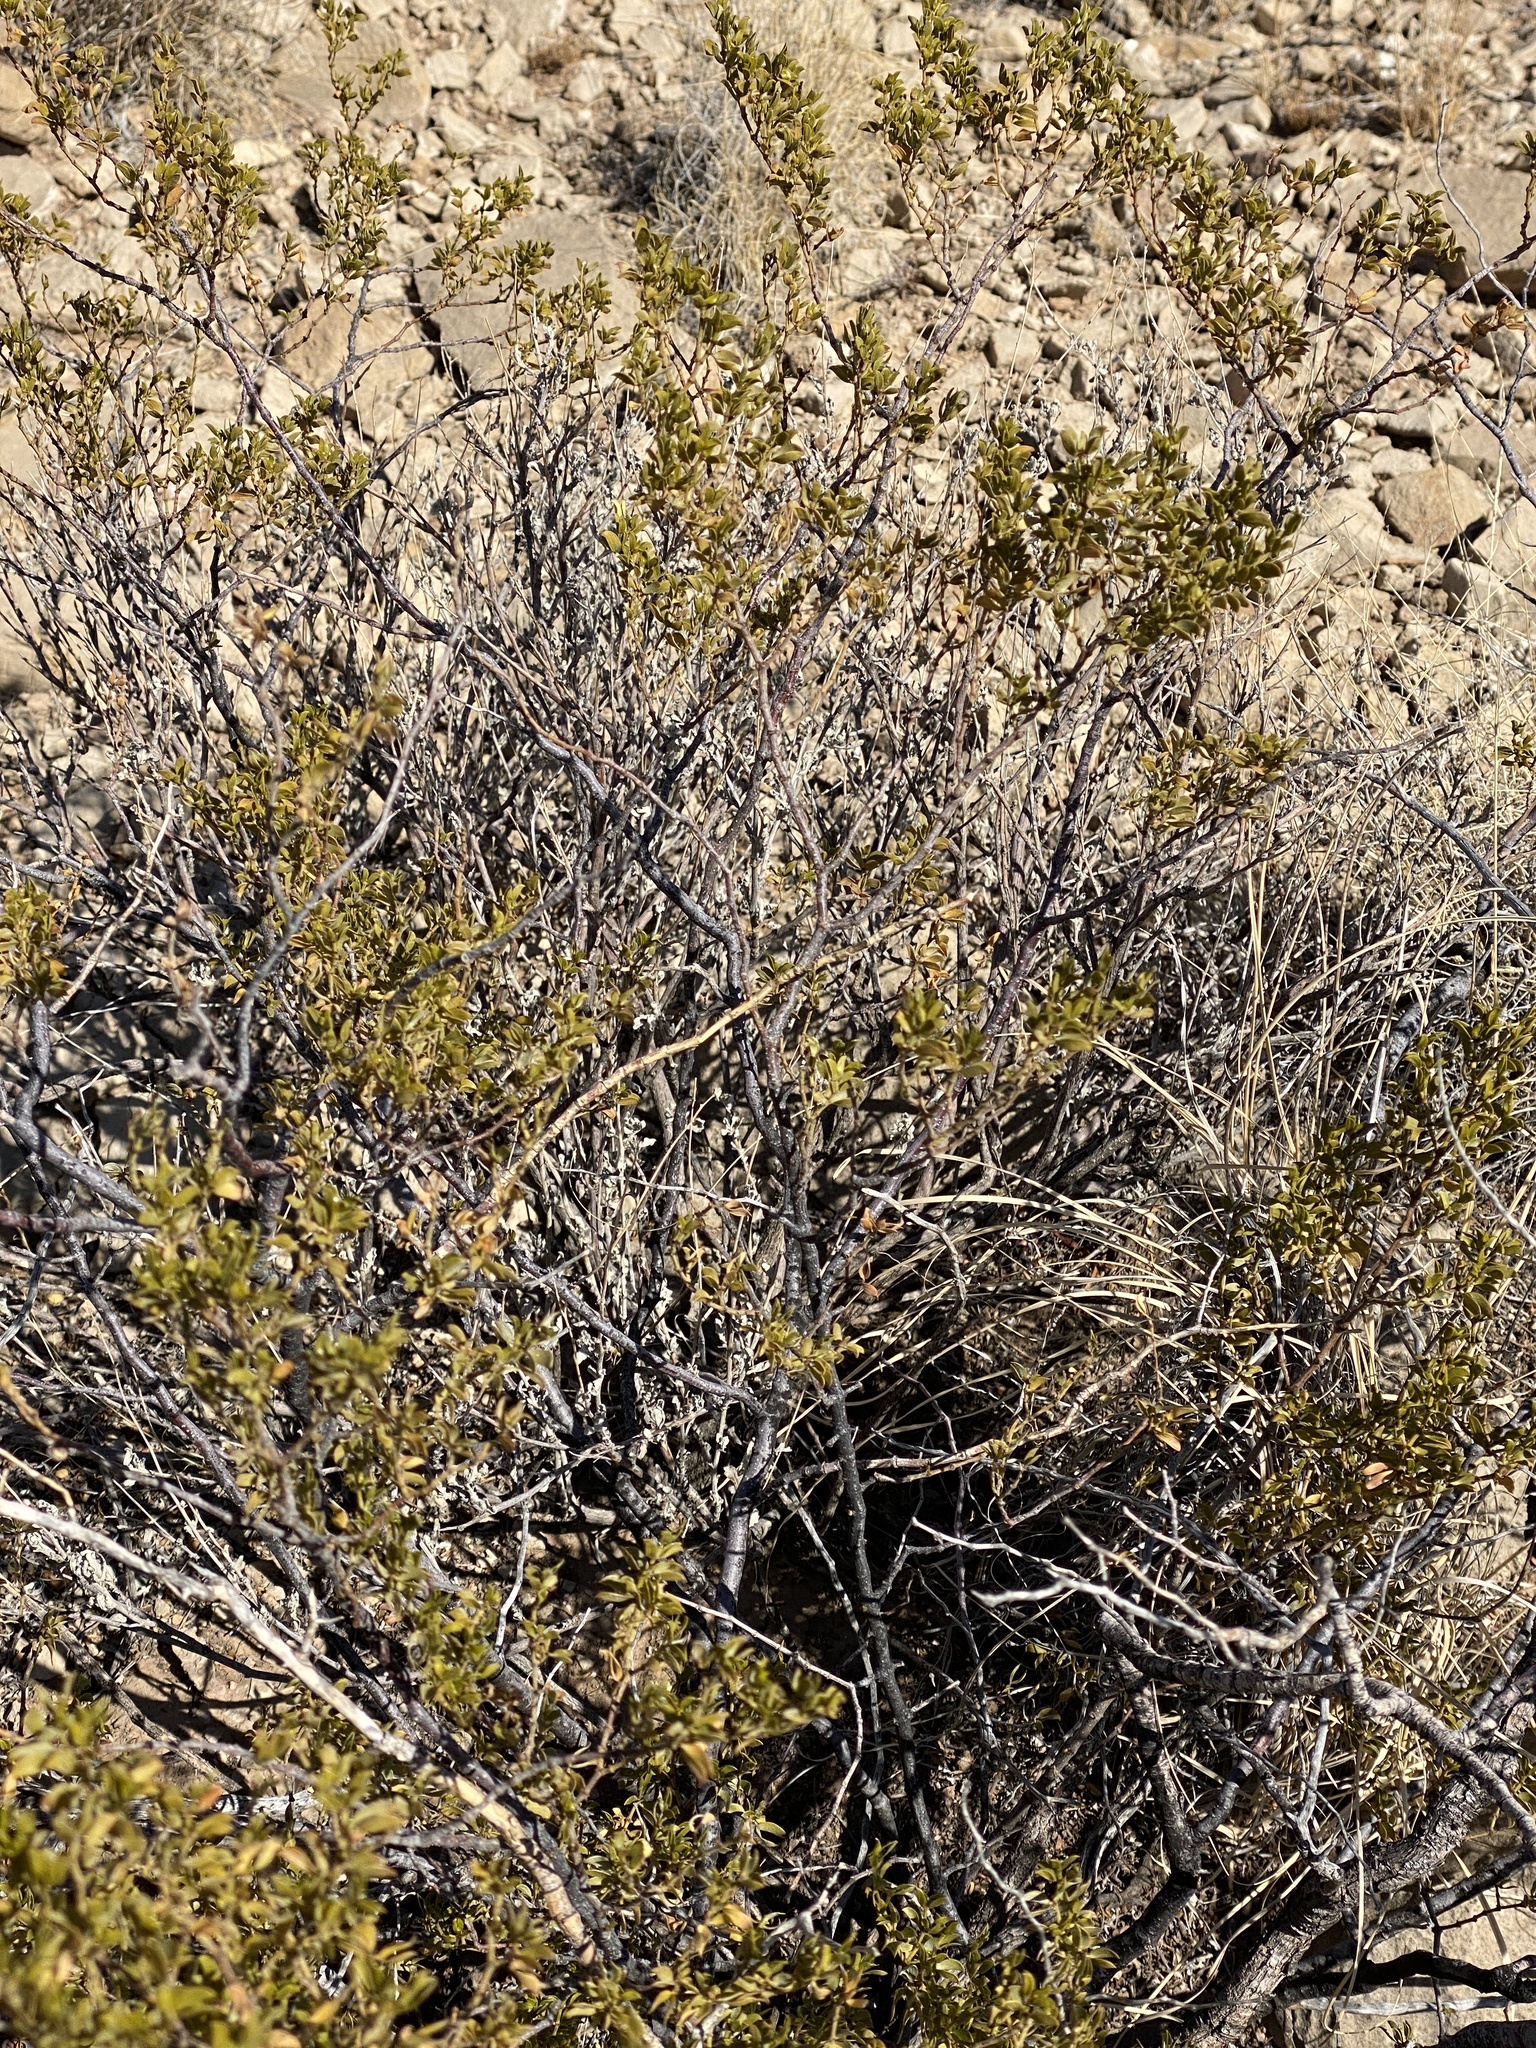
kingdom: Plantae
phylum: Tracheophyta
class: Magnoliopsida
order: Zygophyllales
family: Zygophyllaceae
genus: Larrea
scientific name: Larrea tridentata
